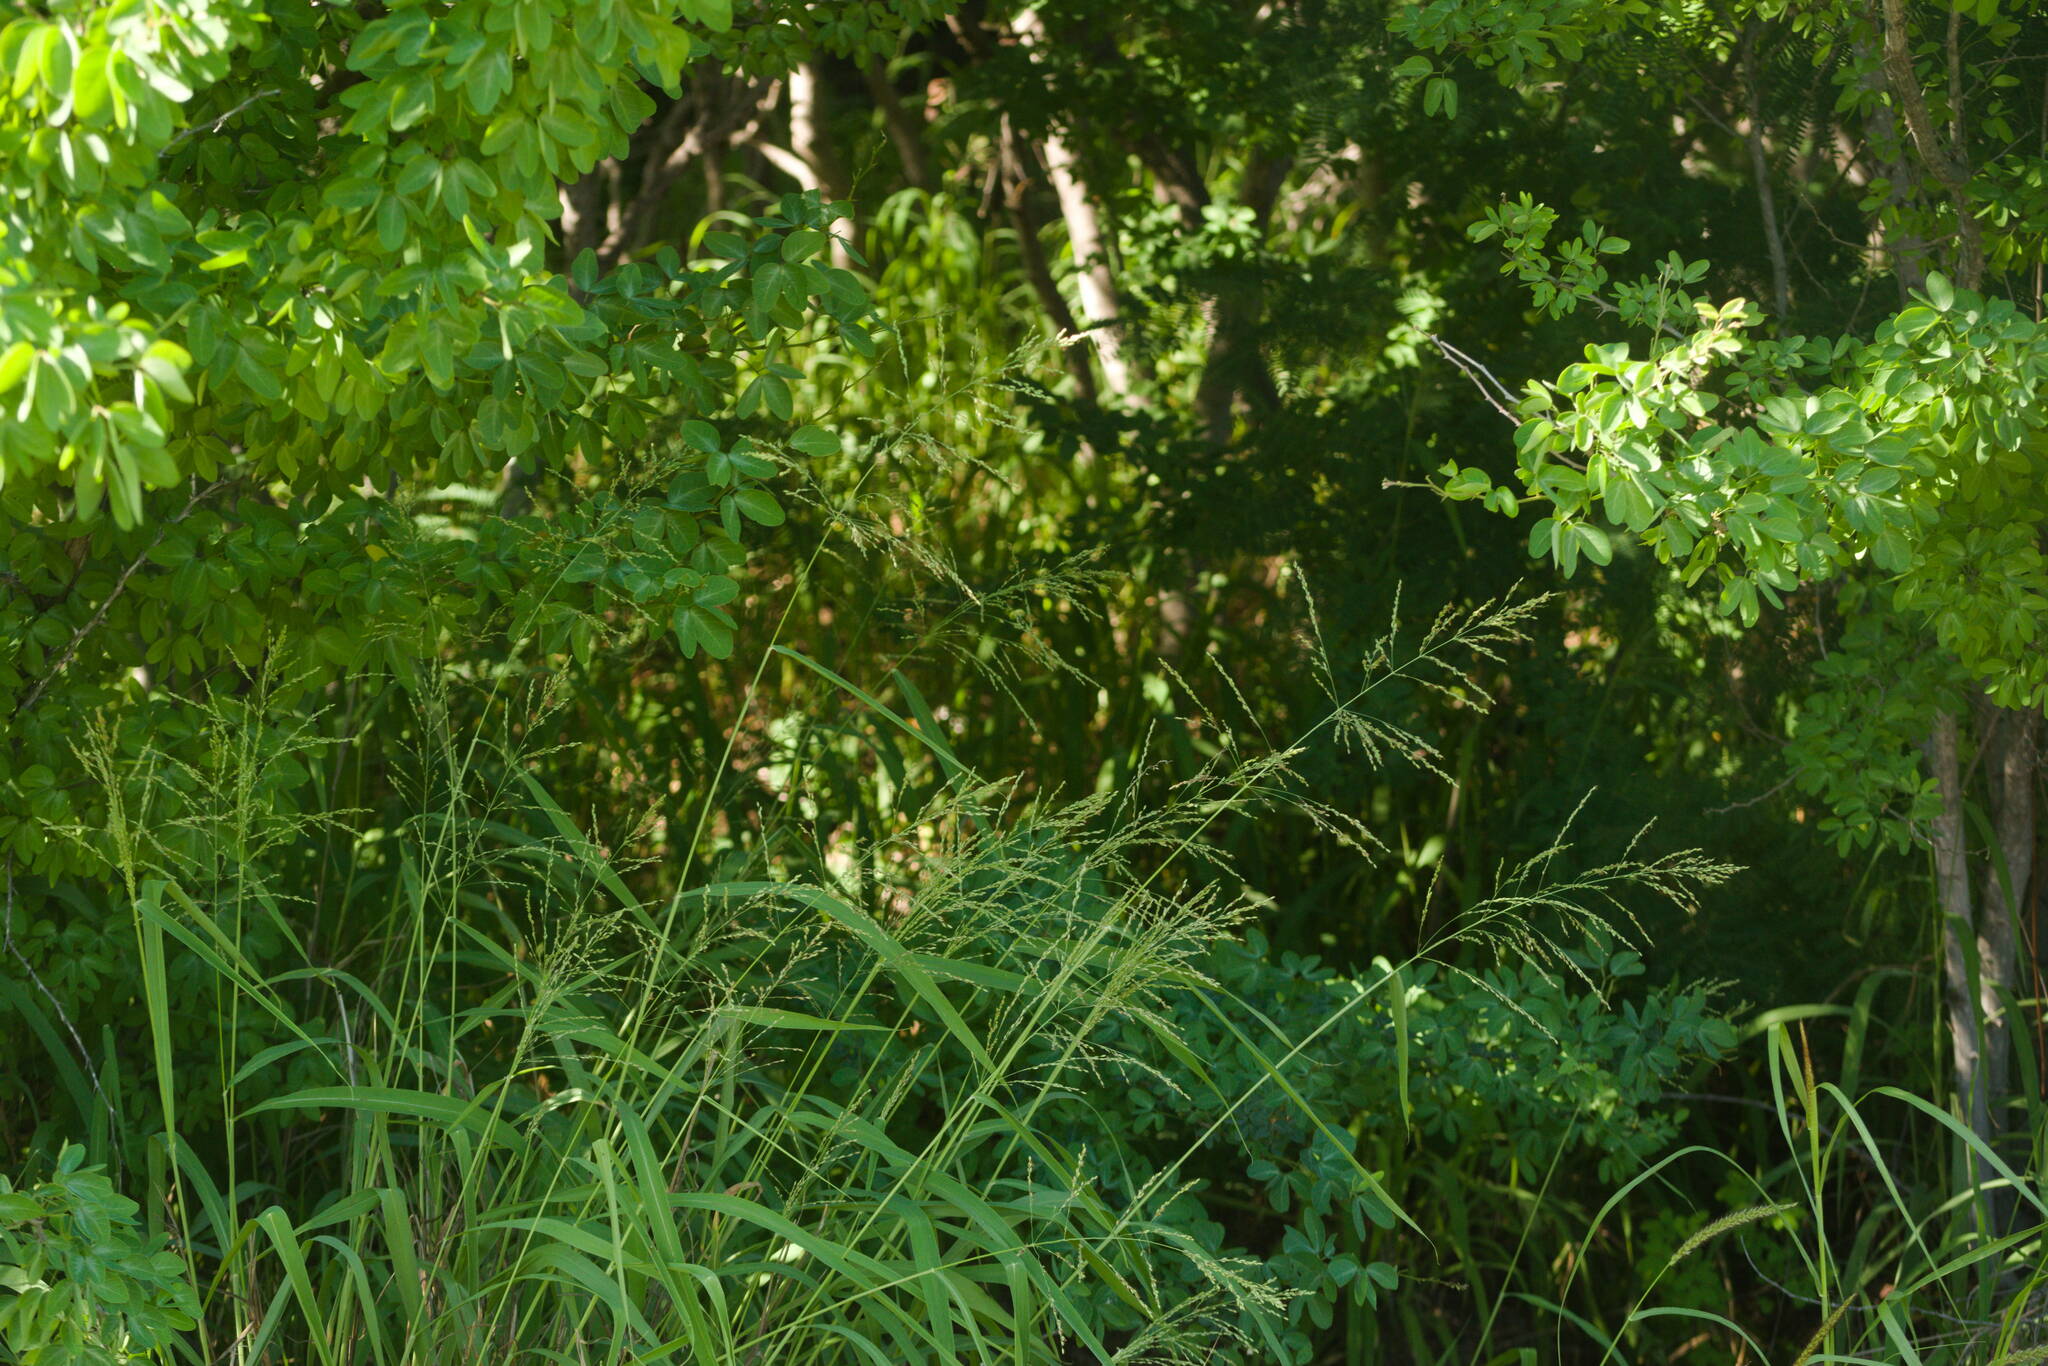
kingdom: Plantae
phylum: Tracheophyta
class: Liliopsida
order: Poales
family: Poaceae
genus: Megathyrsus
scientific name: Megathyrsus maximus
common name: Guineagrass
